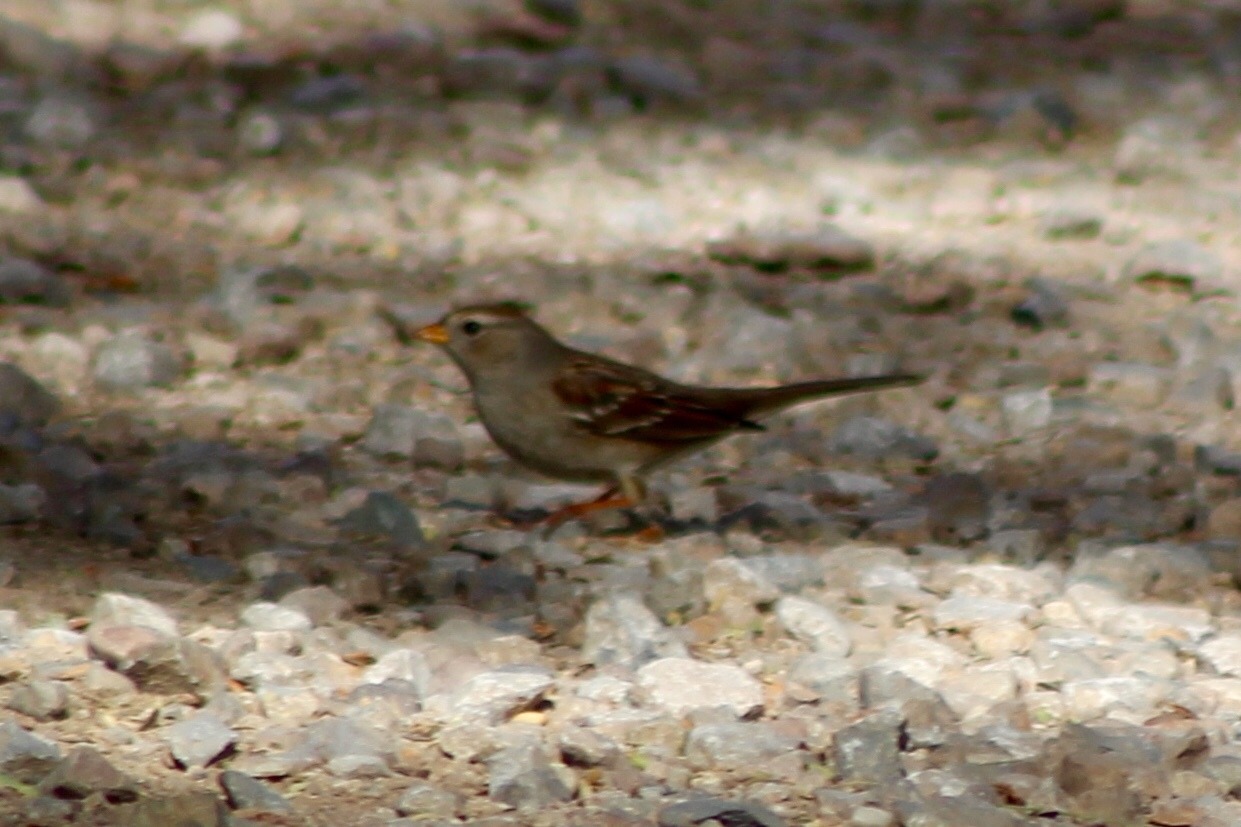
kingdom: Animalia
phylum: Chordata
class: Aves
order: Passeriformes
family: Passerellidae
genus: Zonotrichia
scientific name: Zonotrichia leucophrys
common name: White-crowned sparrow
